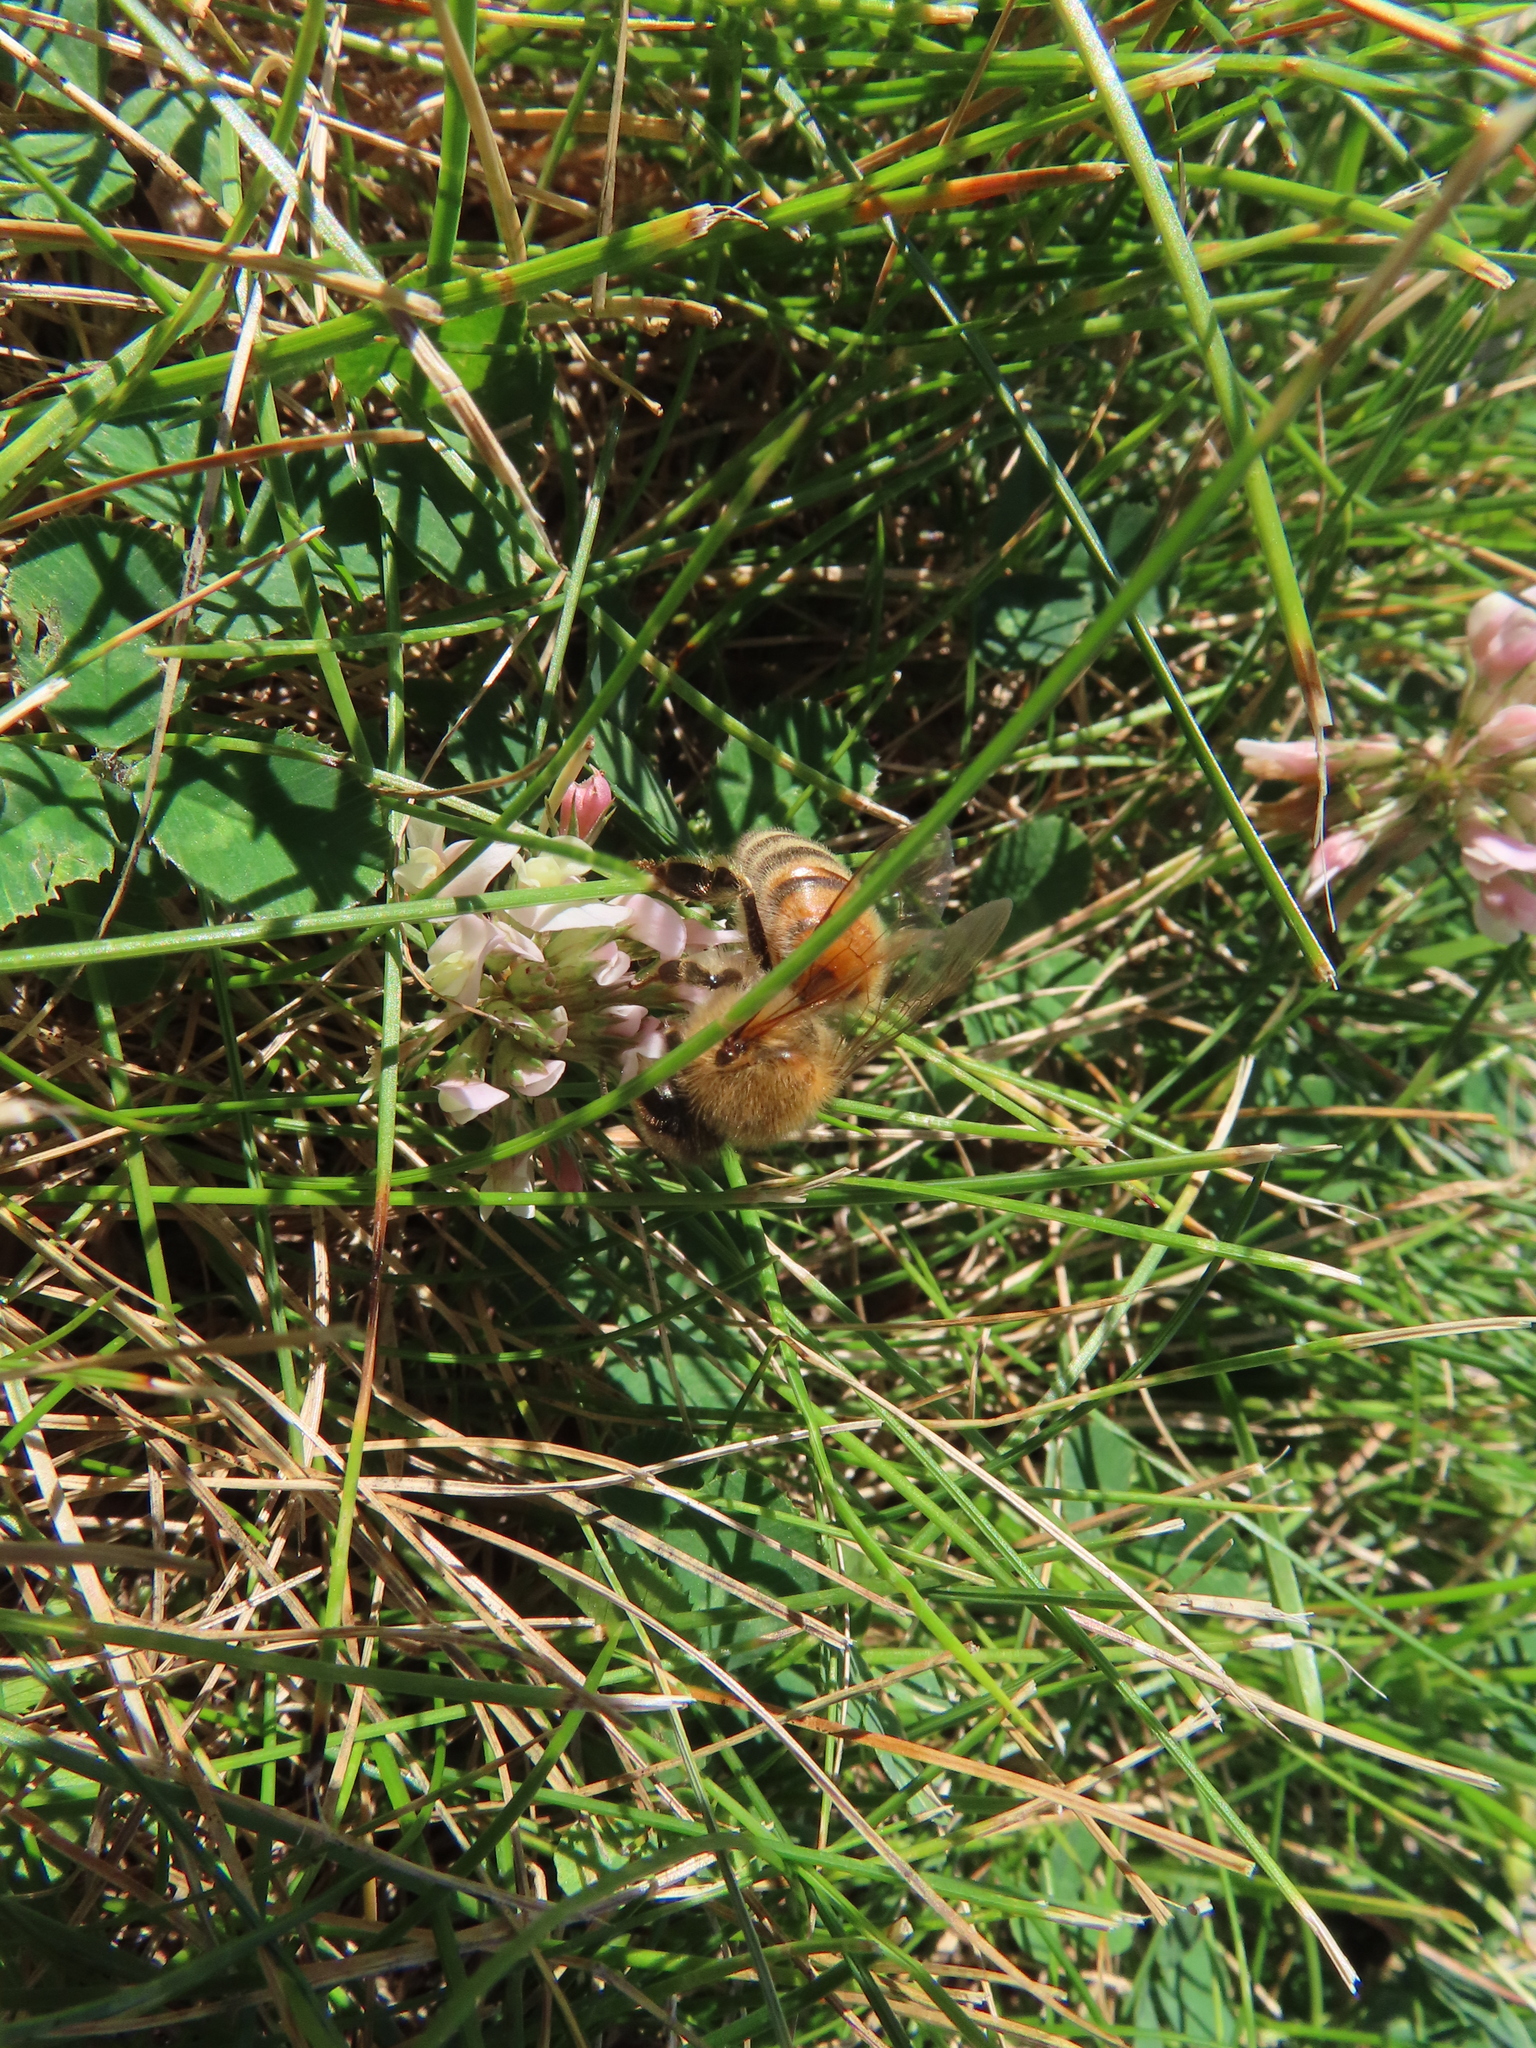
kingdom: Animalia
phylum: Arthropoda
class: Insecta
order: Hymenoptera
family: Apidae
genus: Apis
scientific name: Apis mellifera
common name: Honey bee
